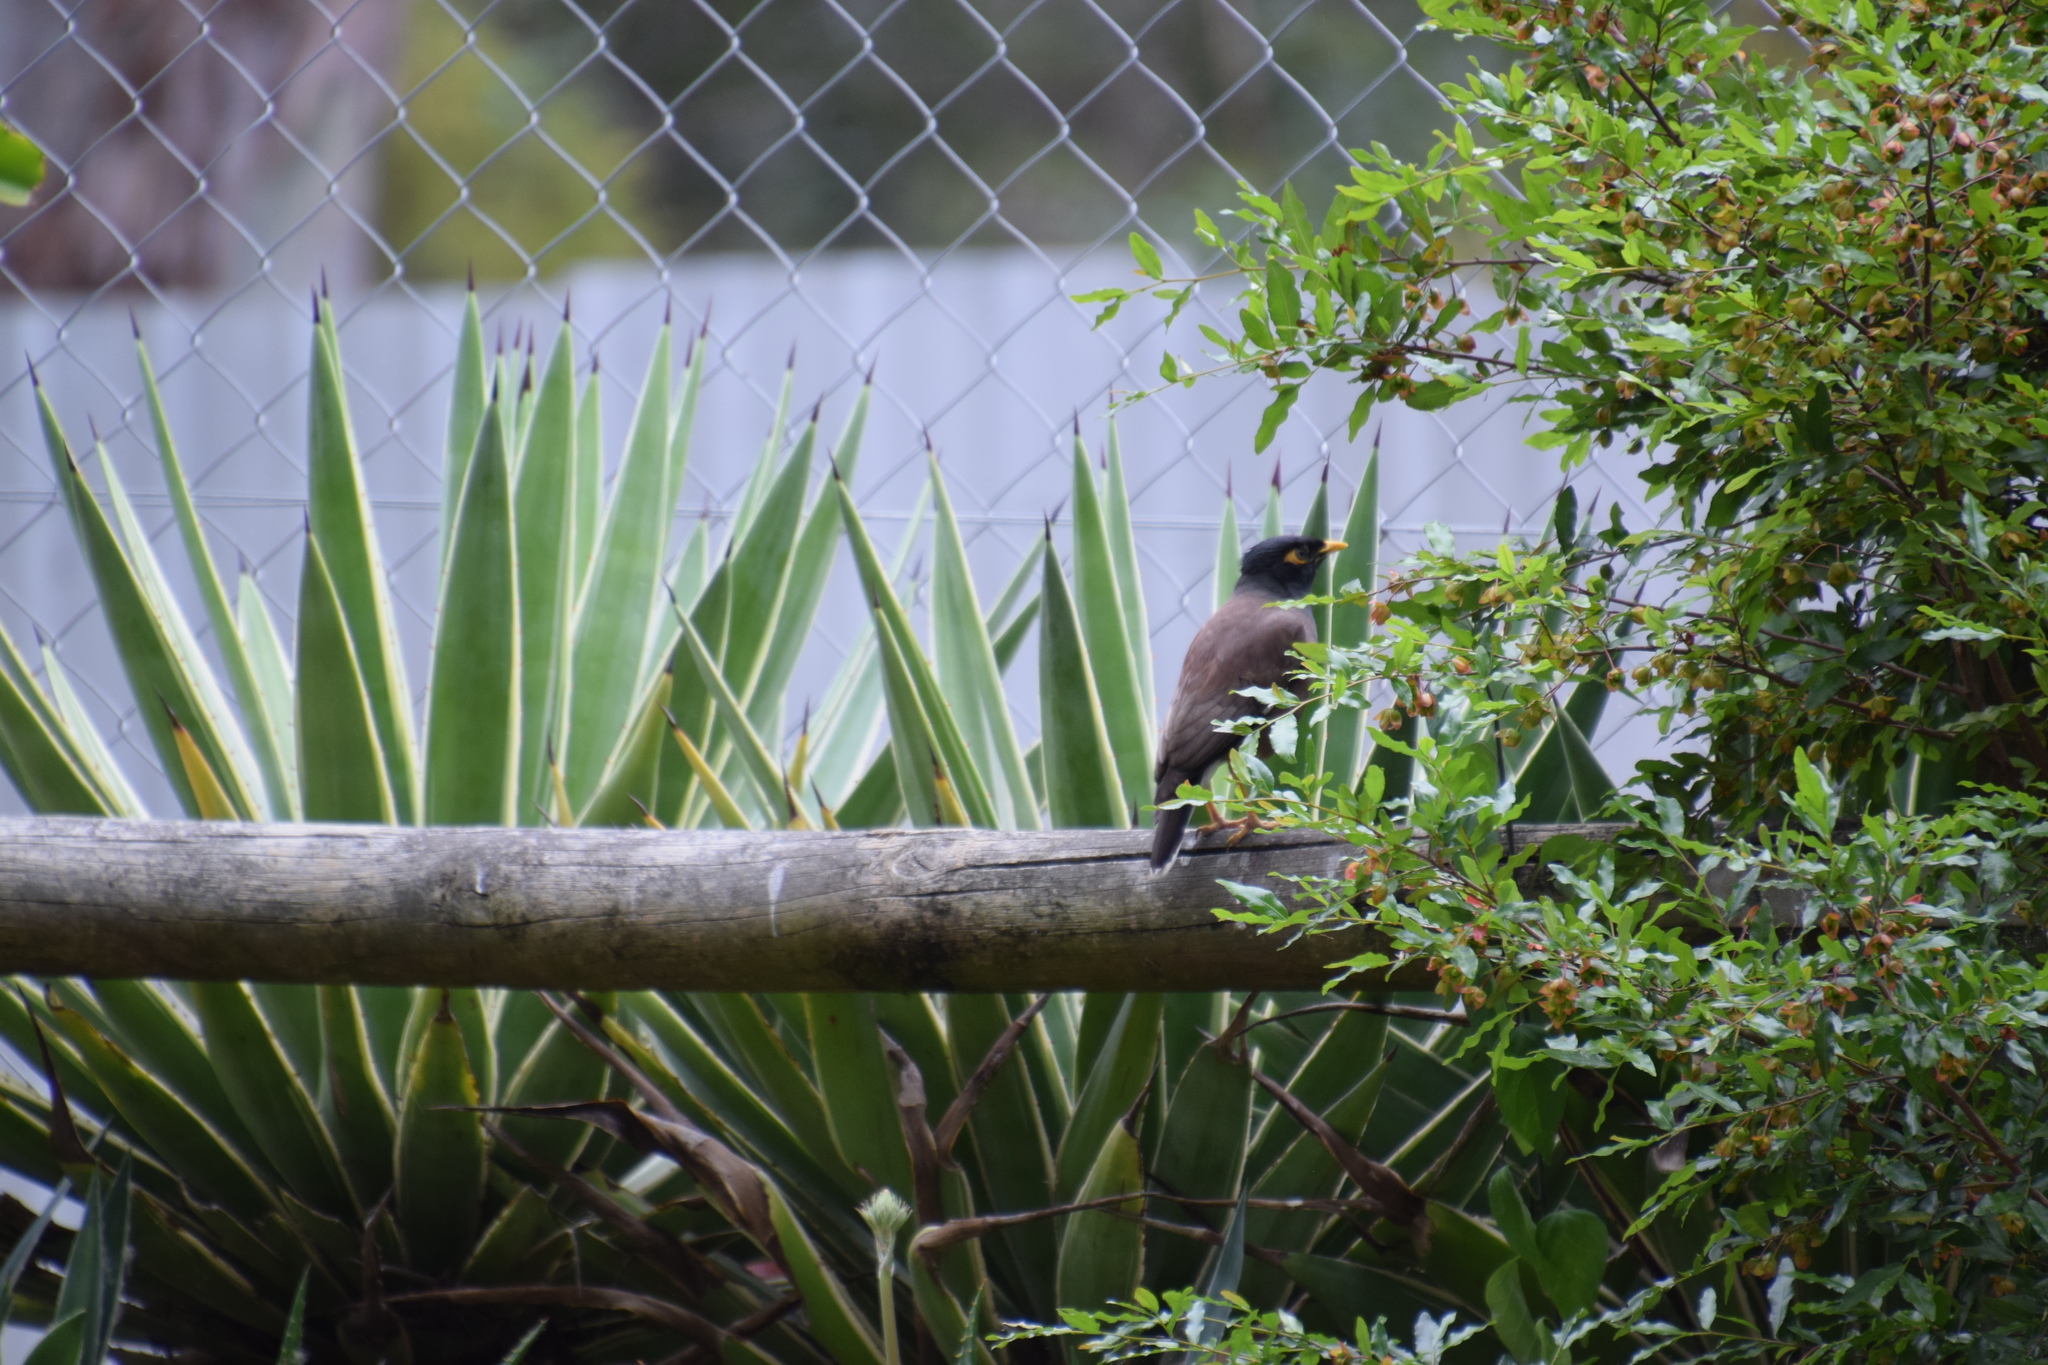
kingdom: Animalia
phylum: Chordata
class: Aves
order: Passeriformes
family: Sturnidae
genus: Acridotheres
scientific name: Acridotheres tristis
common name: Common myna
